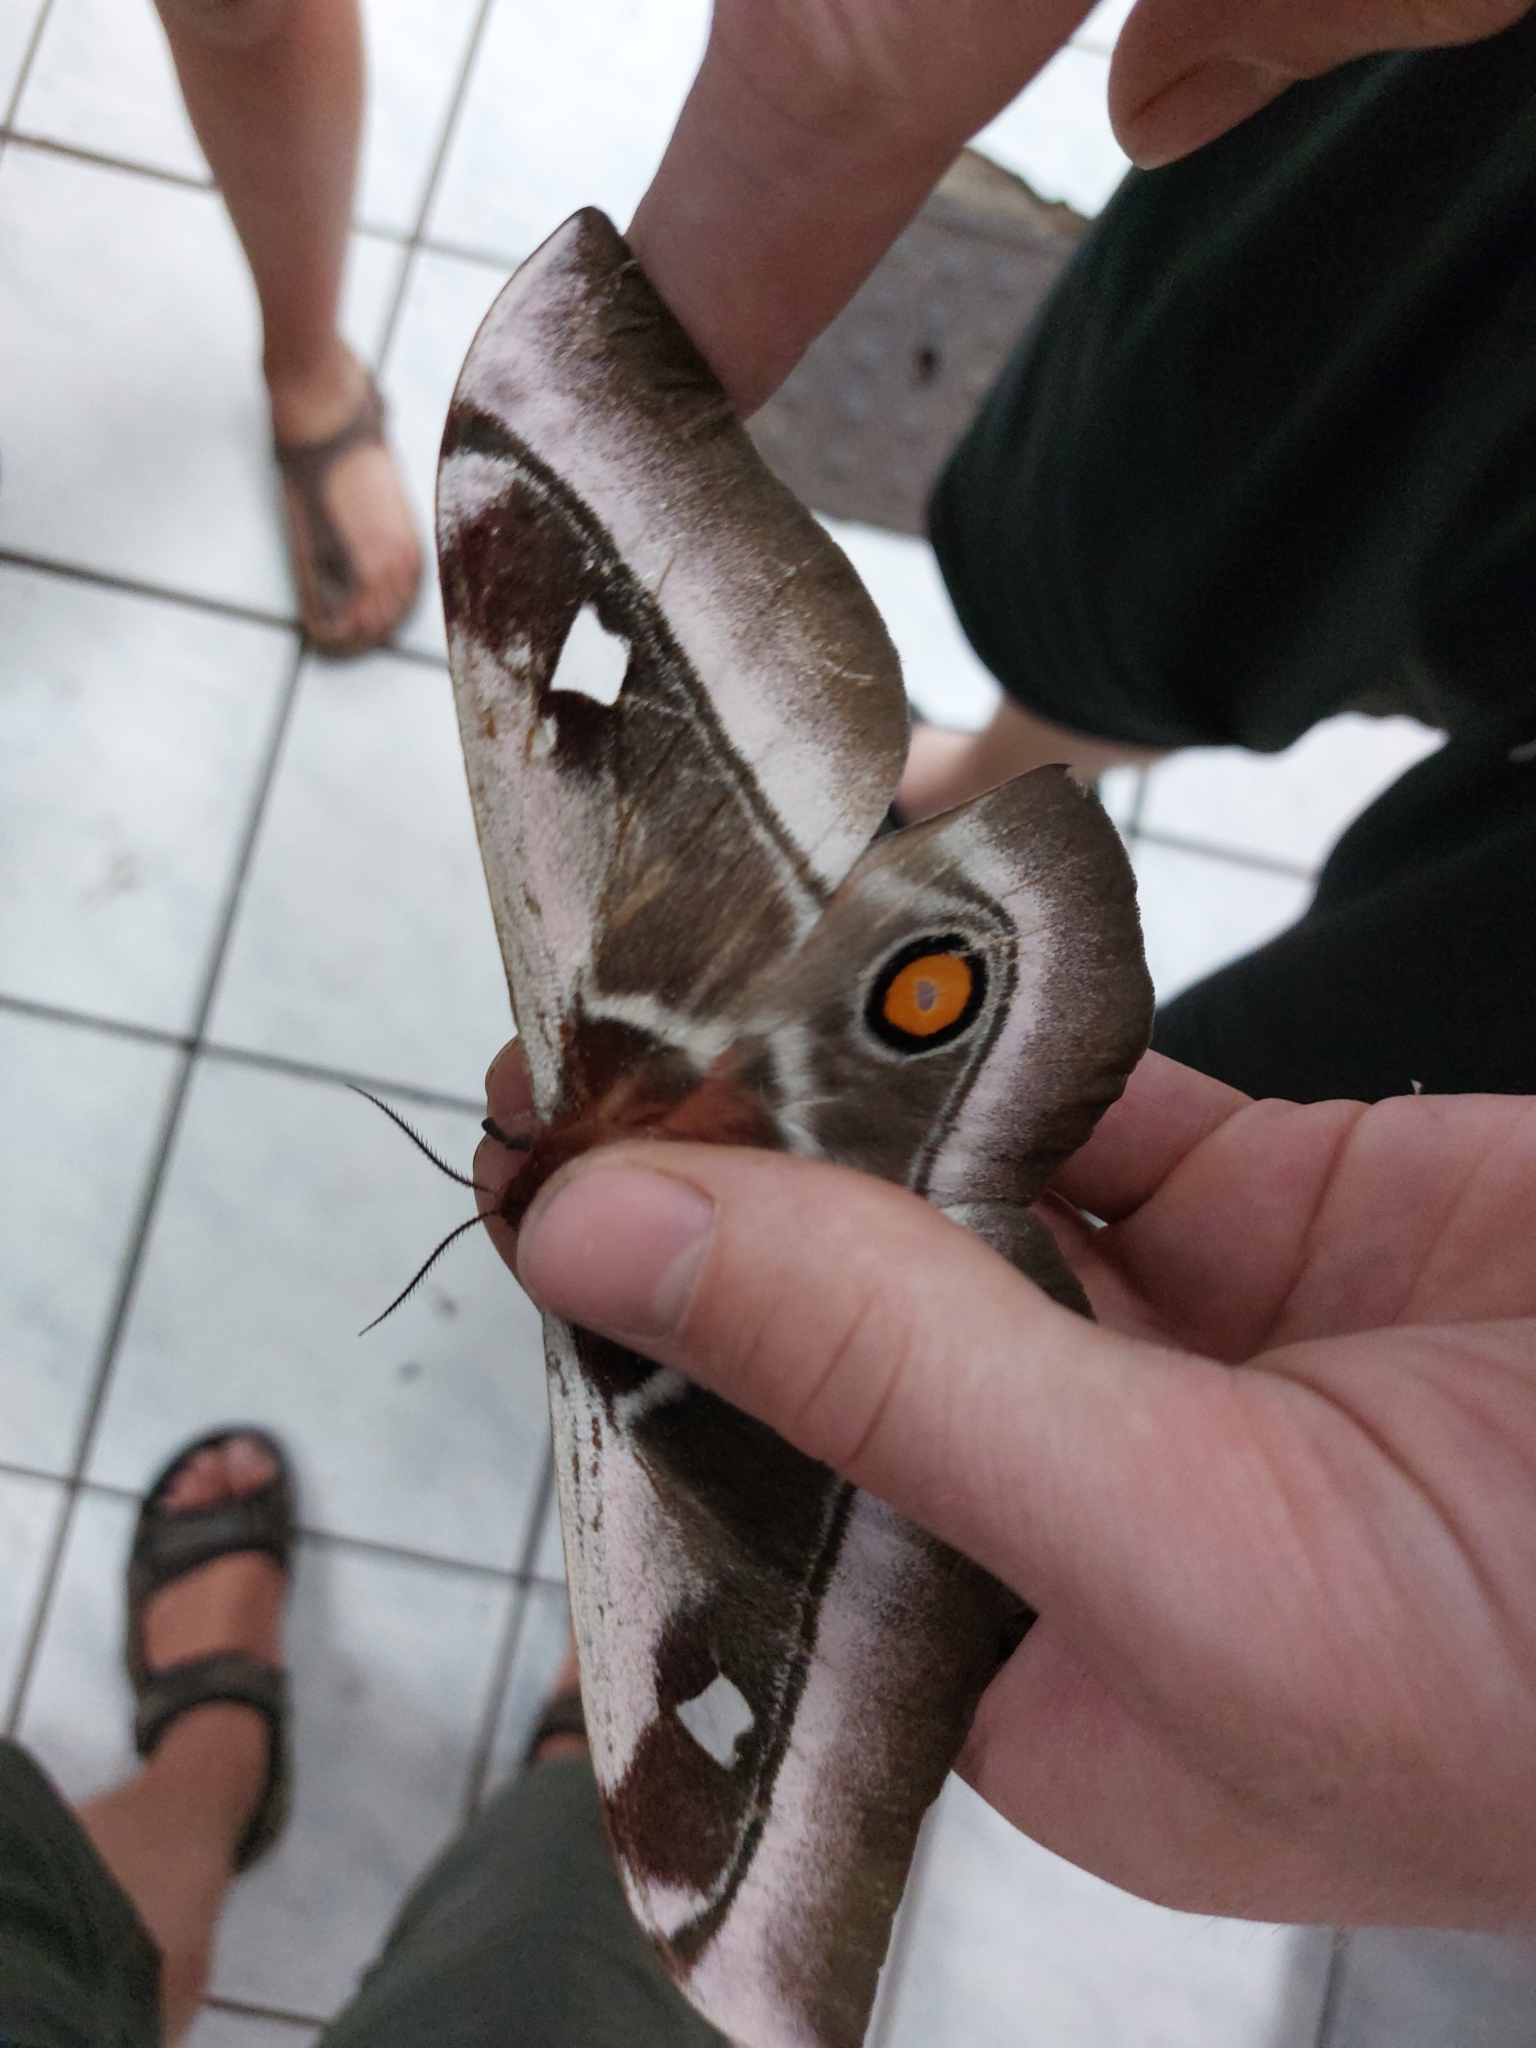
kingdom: Animalia
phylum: Arthropoda
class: Insecta
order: Lepidoptera
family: Saturniidae
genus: Bunaea
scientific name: Bunaea alcinoe
